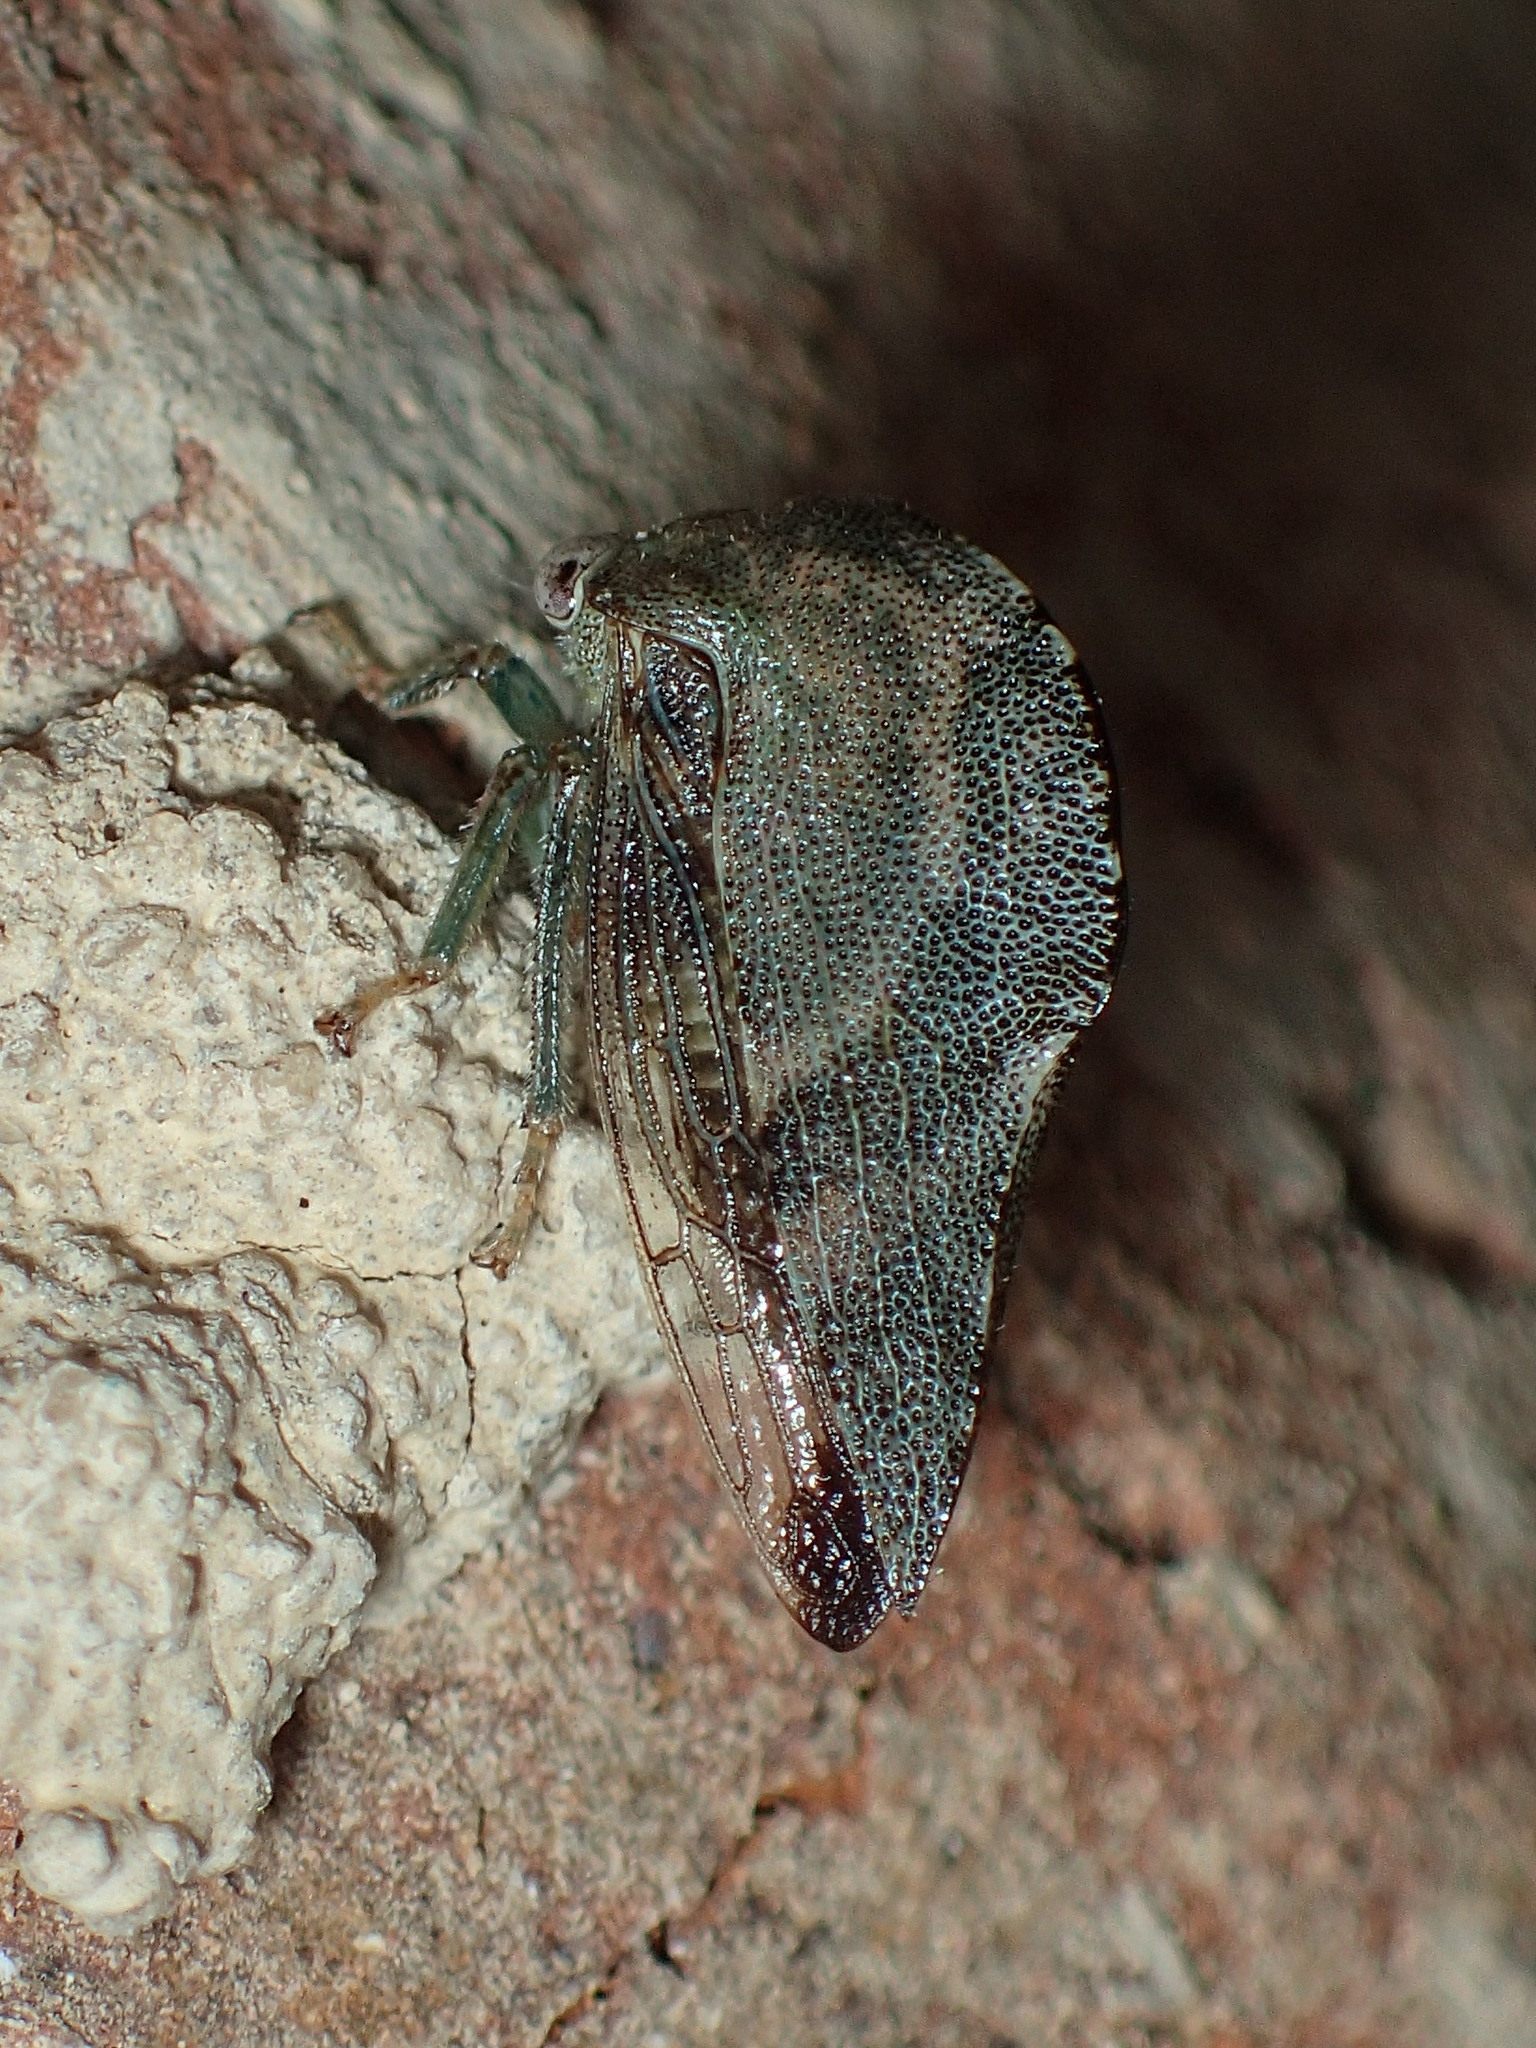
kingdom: Animalia
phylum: Arthropoda
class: Insecta
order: Hemiptera
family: Membracidae
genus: Telamona
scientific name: Telamona reclivata
